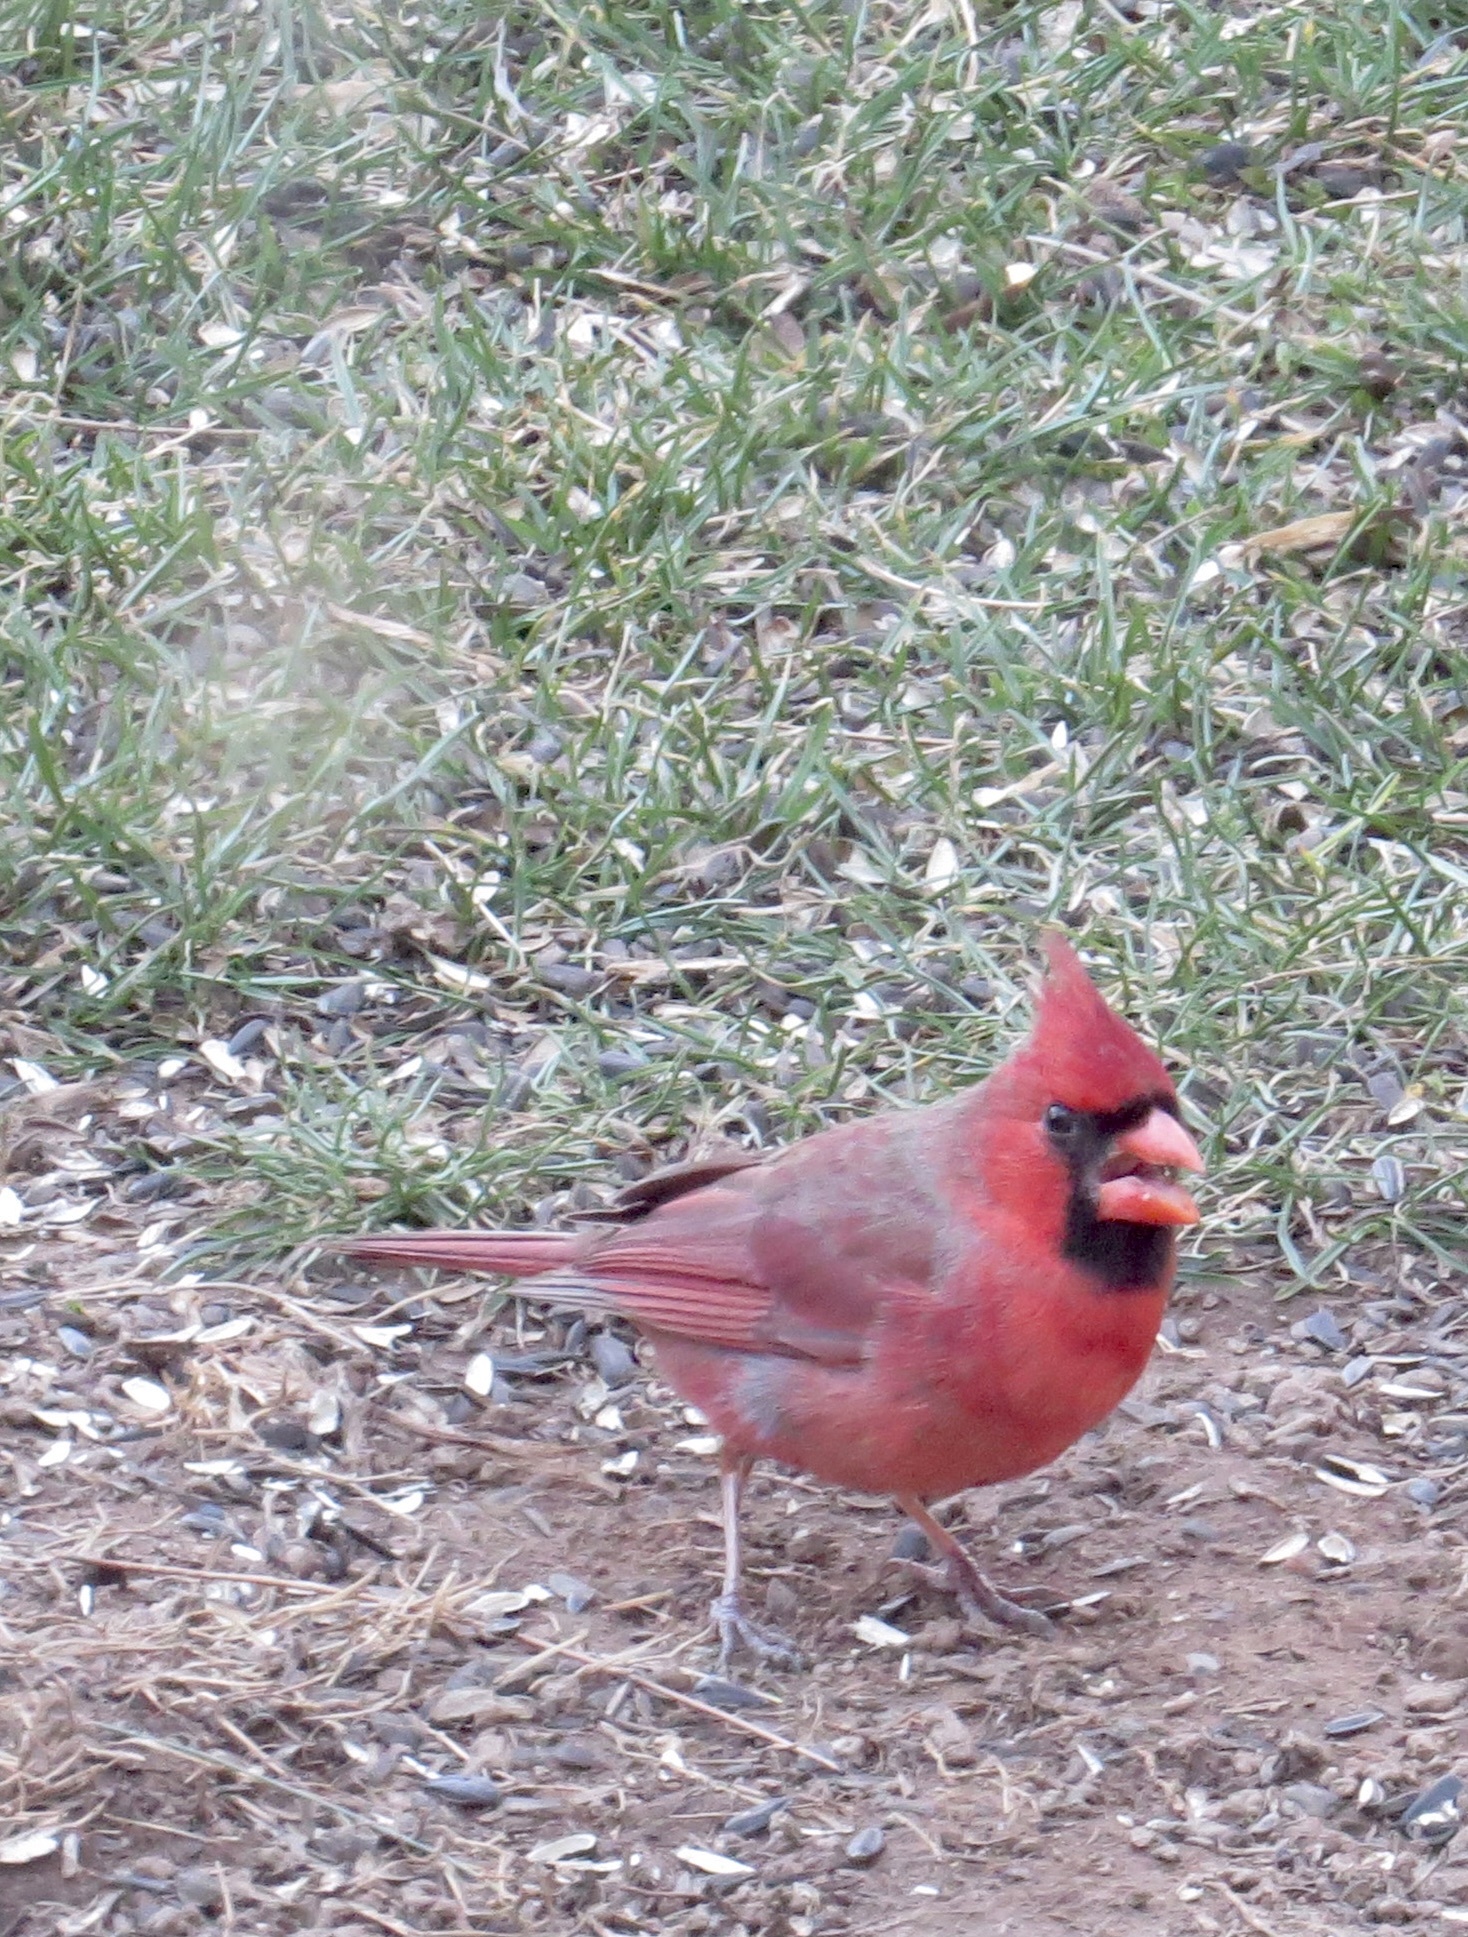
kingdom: Animalia
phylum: Chordata
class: Aves
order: Passeriformes
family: Cardinalidae
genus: Cardinalis
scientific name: Cardinalis cardinalis
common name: Northern cardinal
